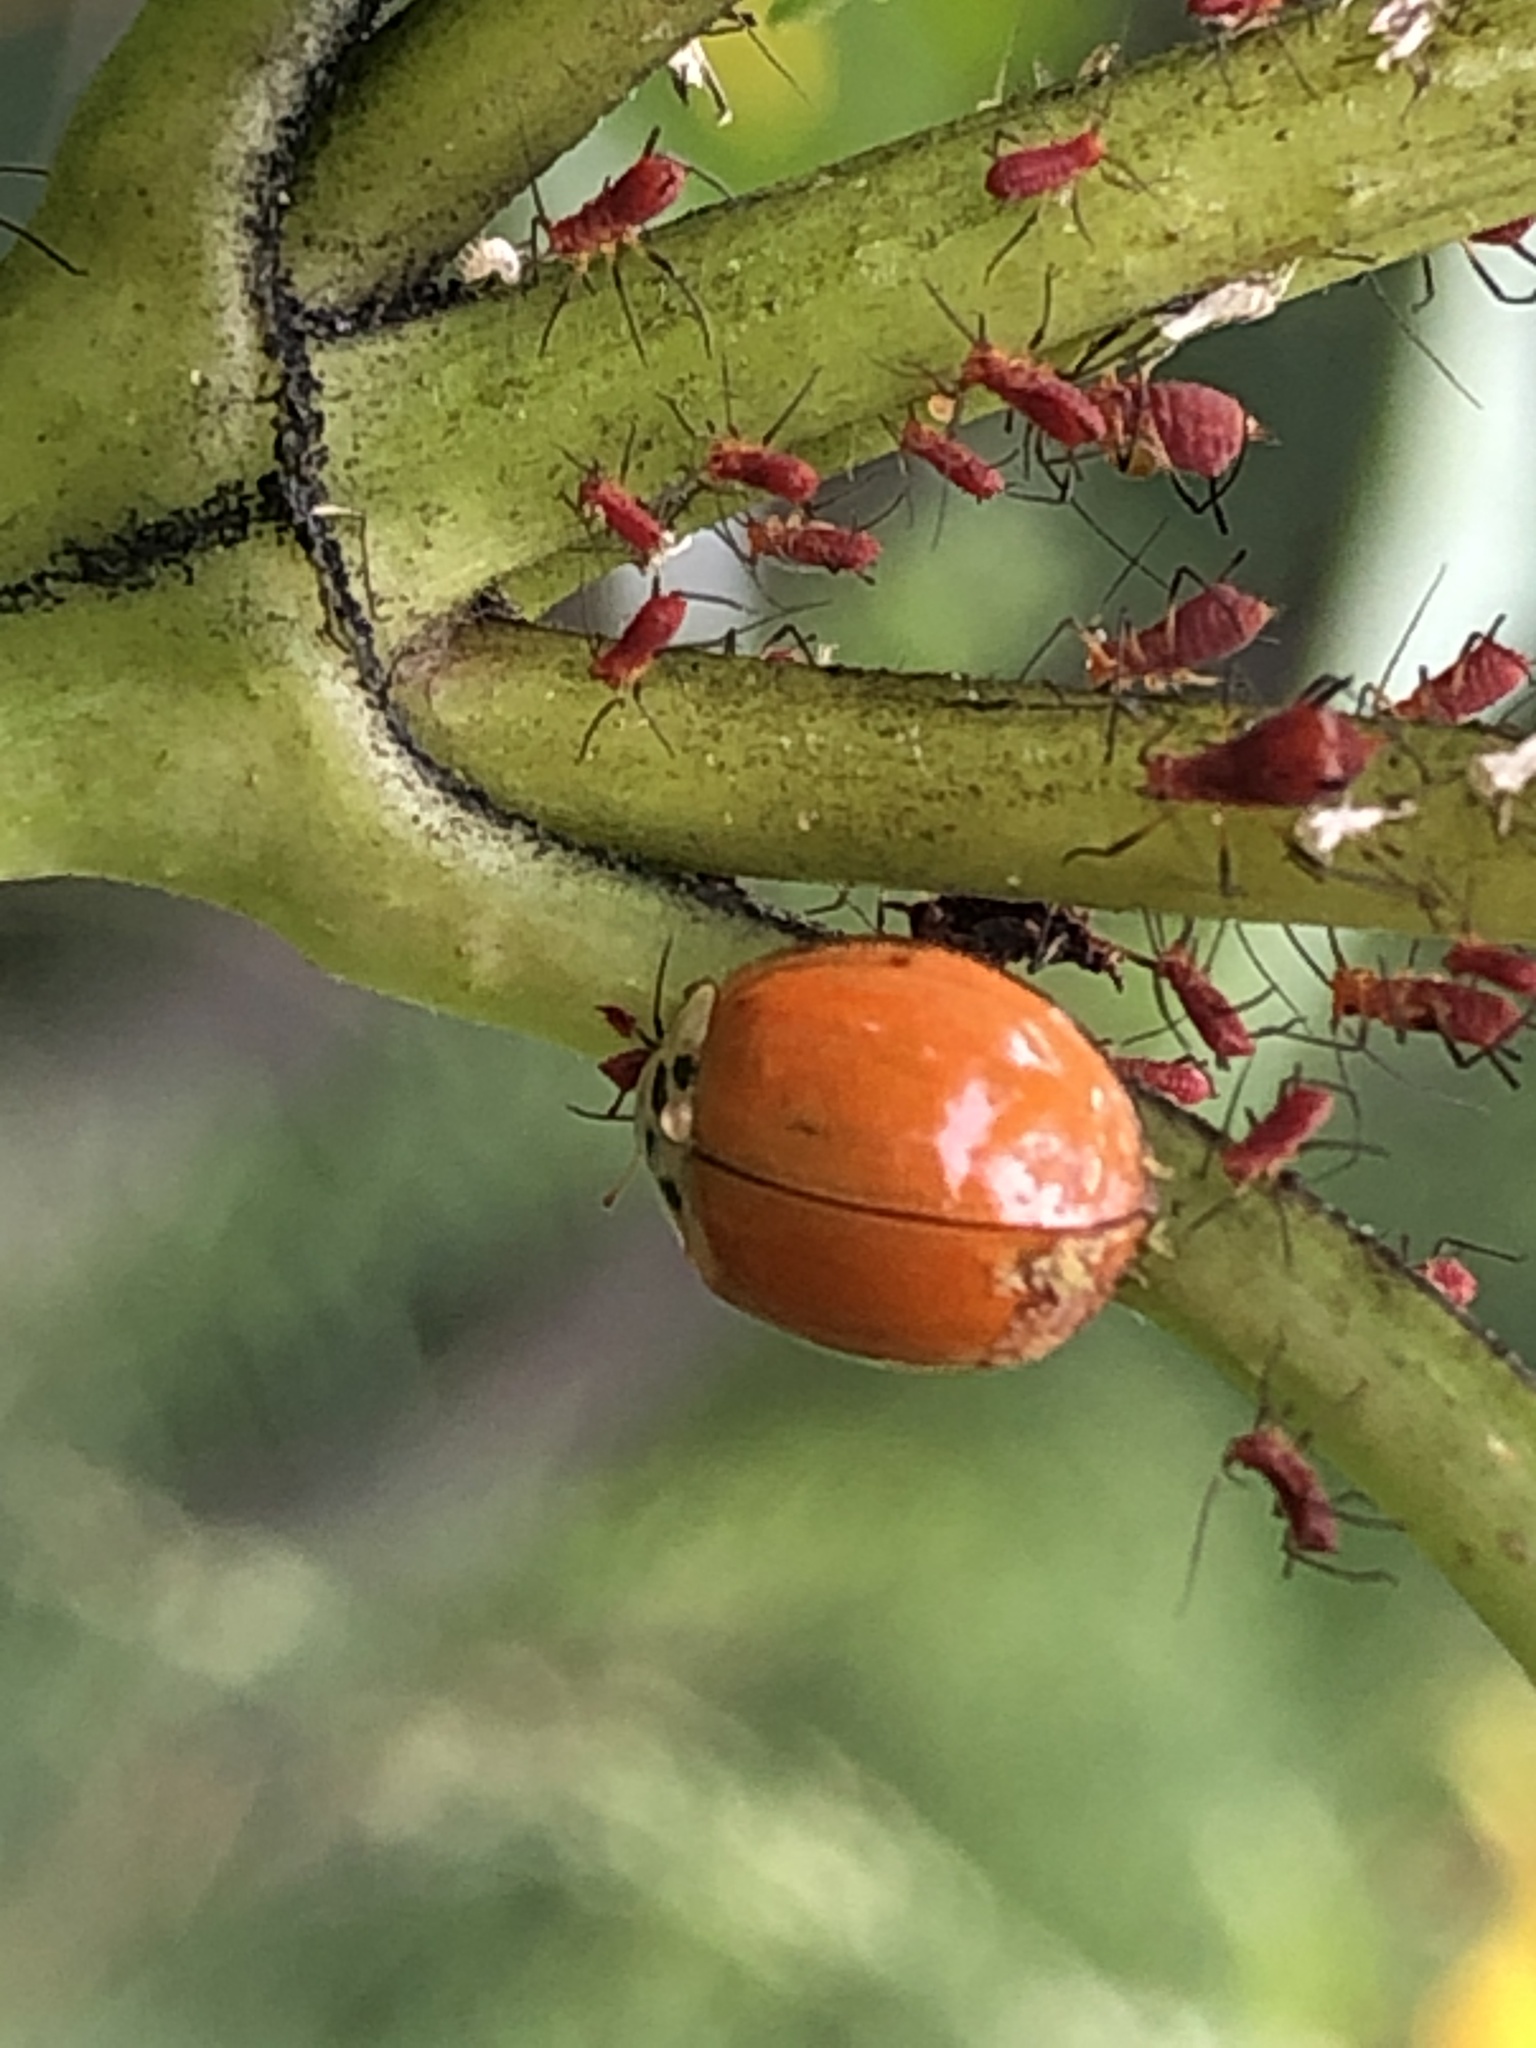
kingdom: Animalia
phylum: Arthropoda
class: Insecta
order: Coleoptera
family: Coccinellidae
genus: Harmonia
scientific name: Harmonia axyridis
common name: Harlequin ladybird
